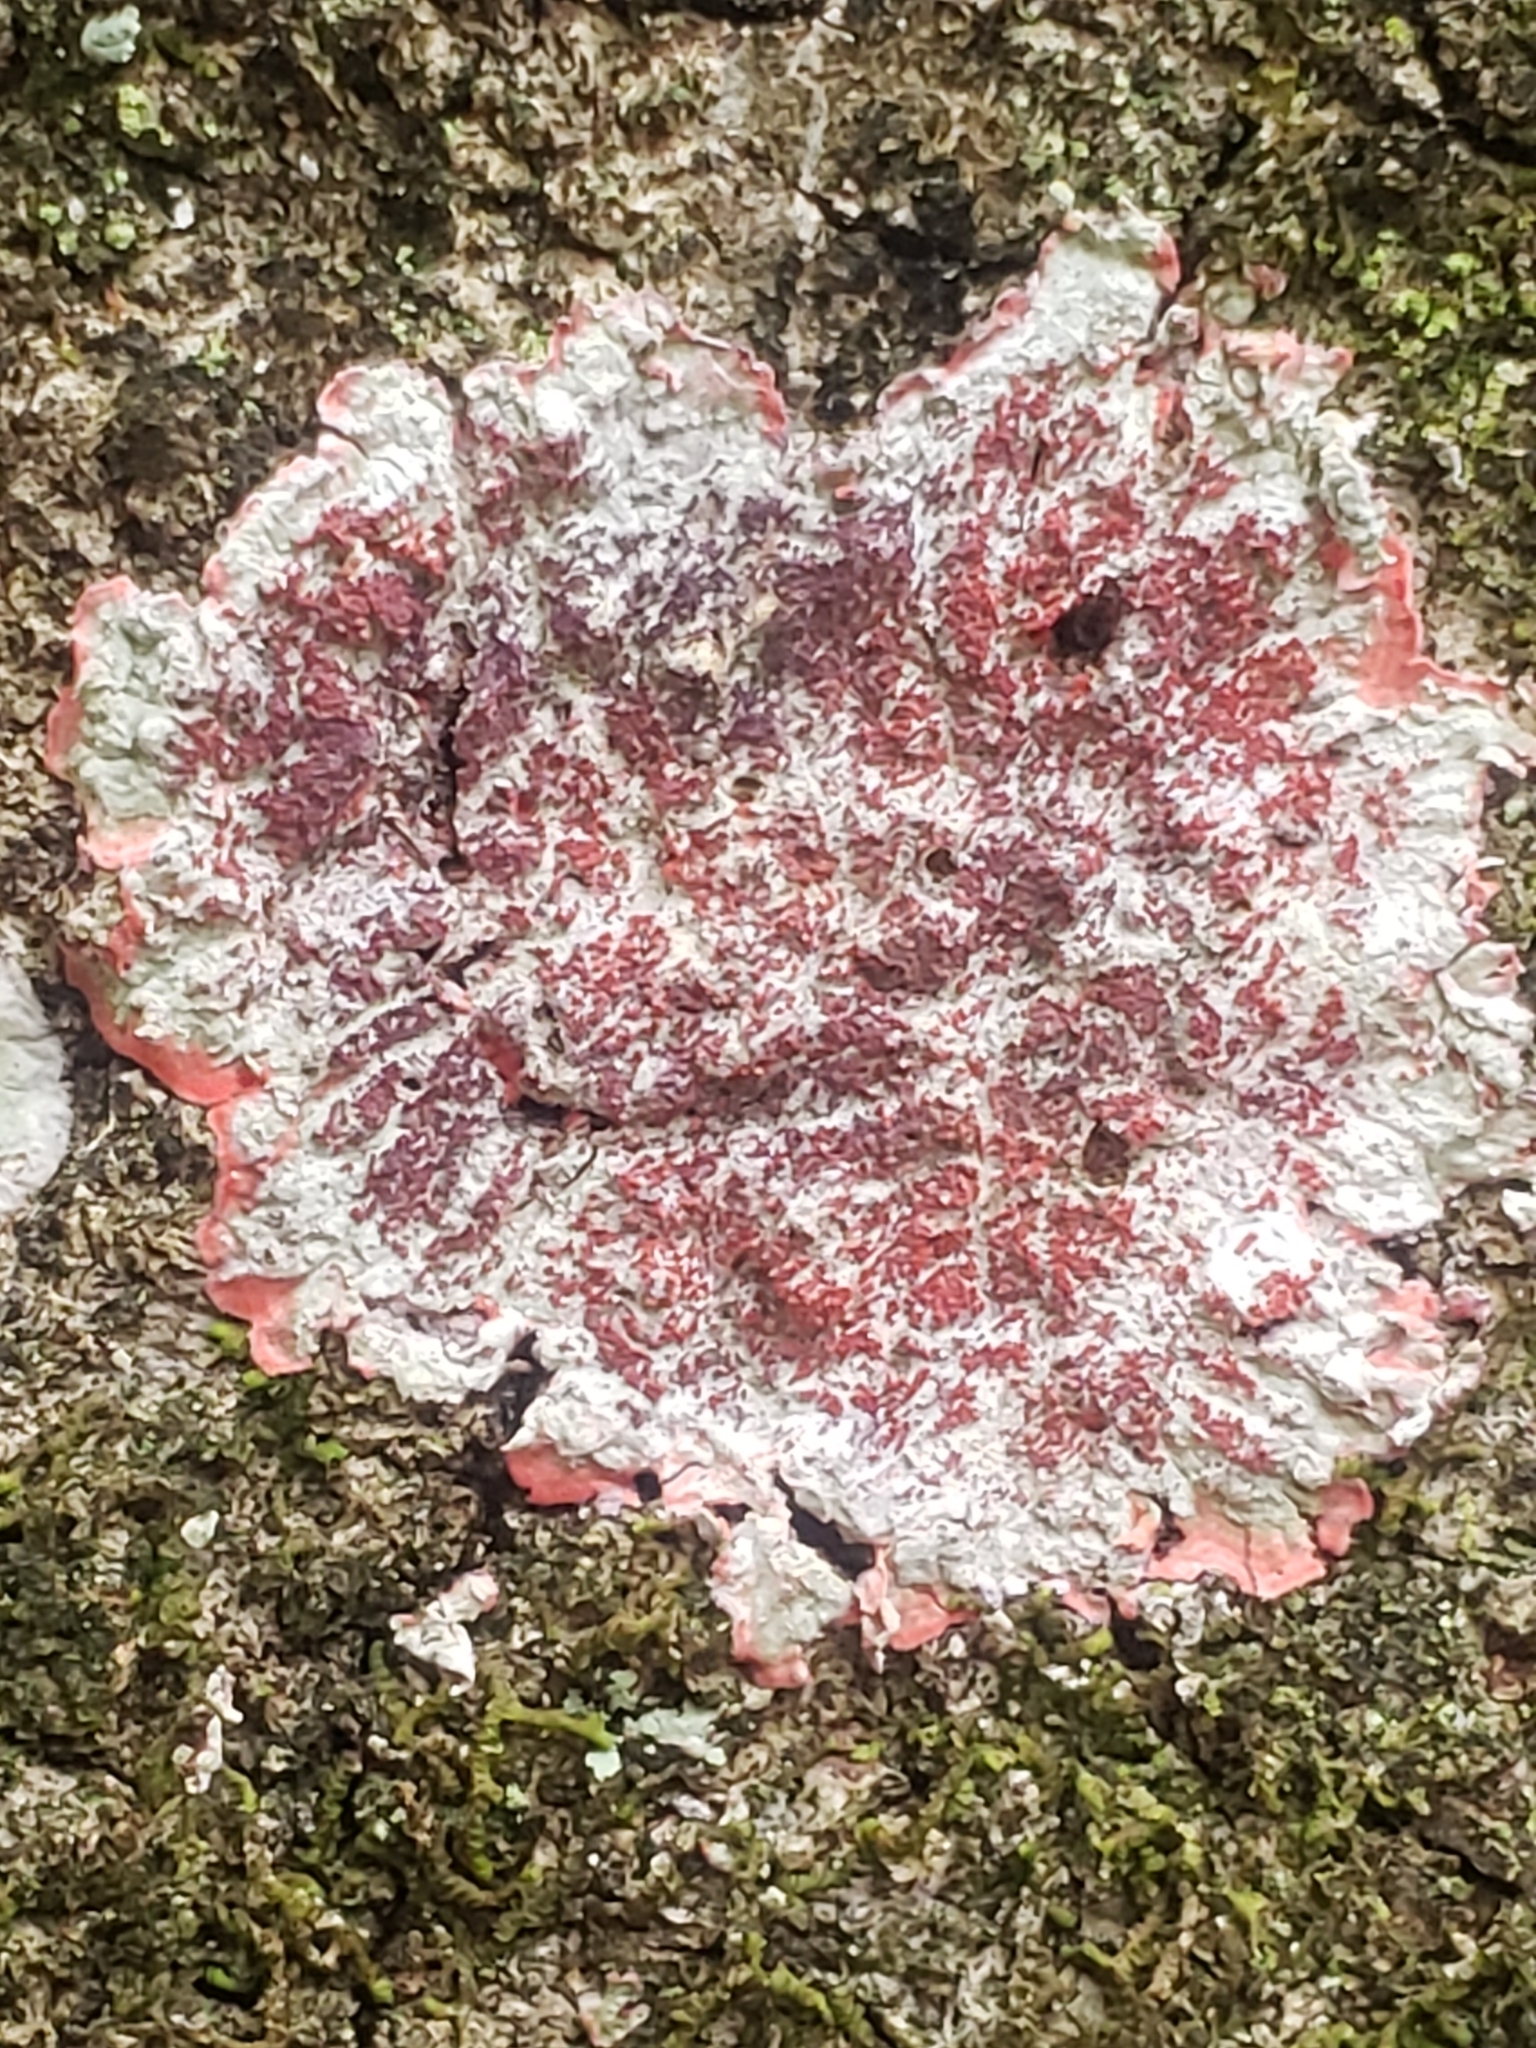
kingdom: Fungi
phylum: Ascomycota
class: Arthoniomycetes
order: Arthoniales
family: Arthoniaceae
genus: Herpothallon
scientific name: Herpothallon rubrocinctum
